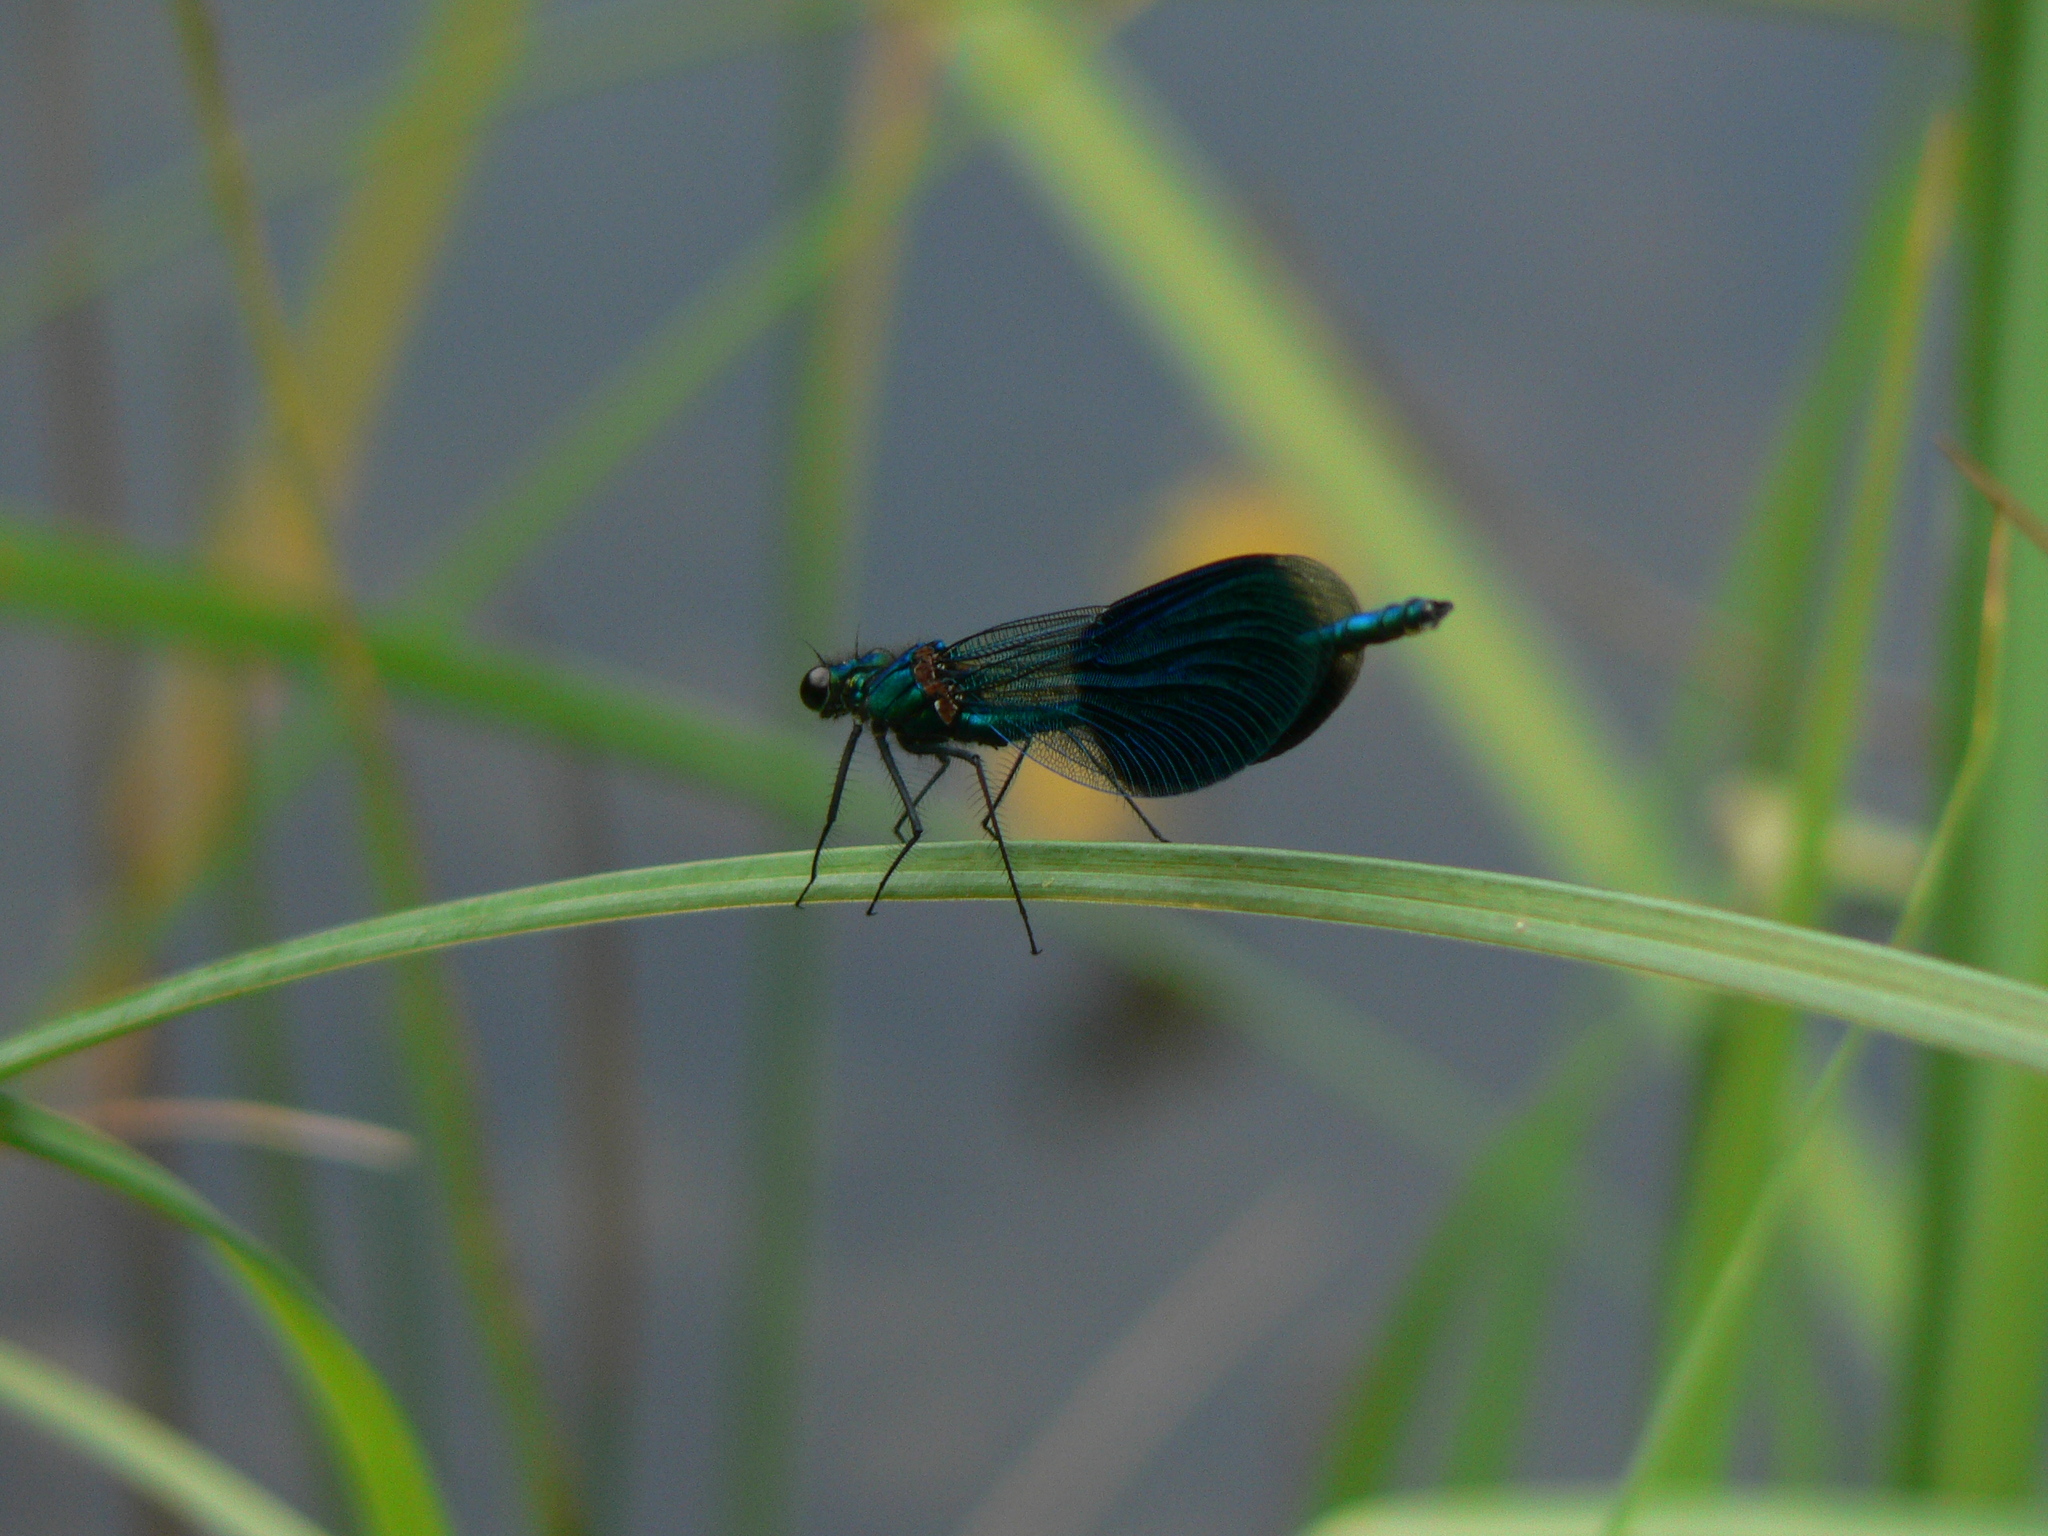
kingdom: Animalia
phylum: Arthropoda
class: Insecta
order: Odonata
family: Calopterygidae
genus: Calopteryx
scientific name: Calopteryx splendens
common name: Banded demoiselle
